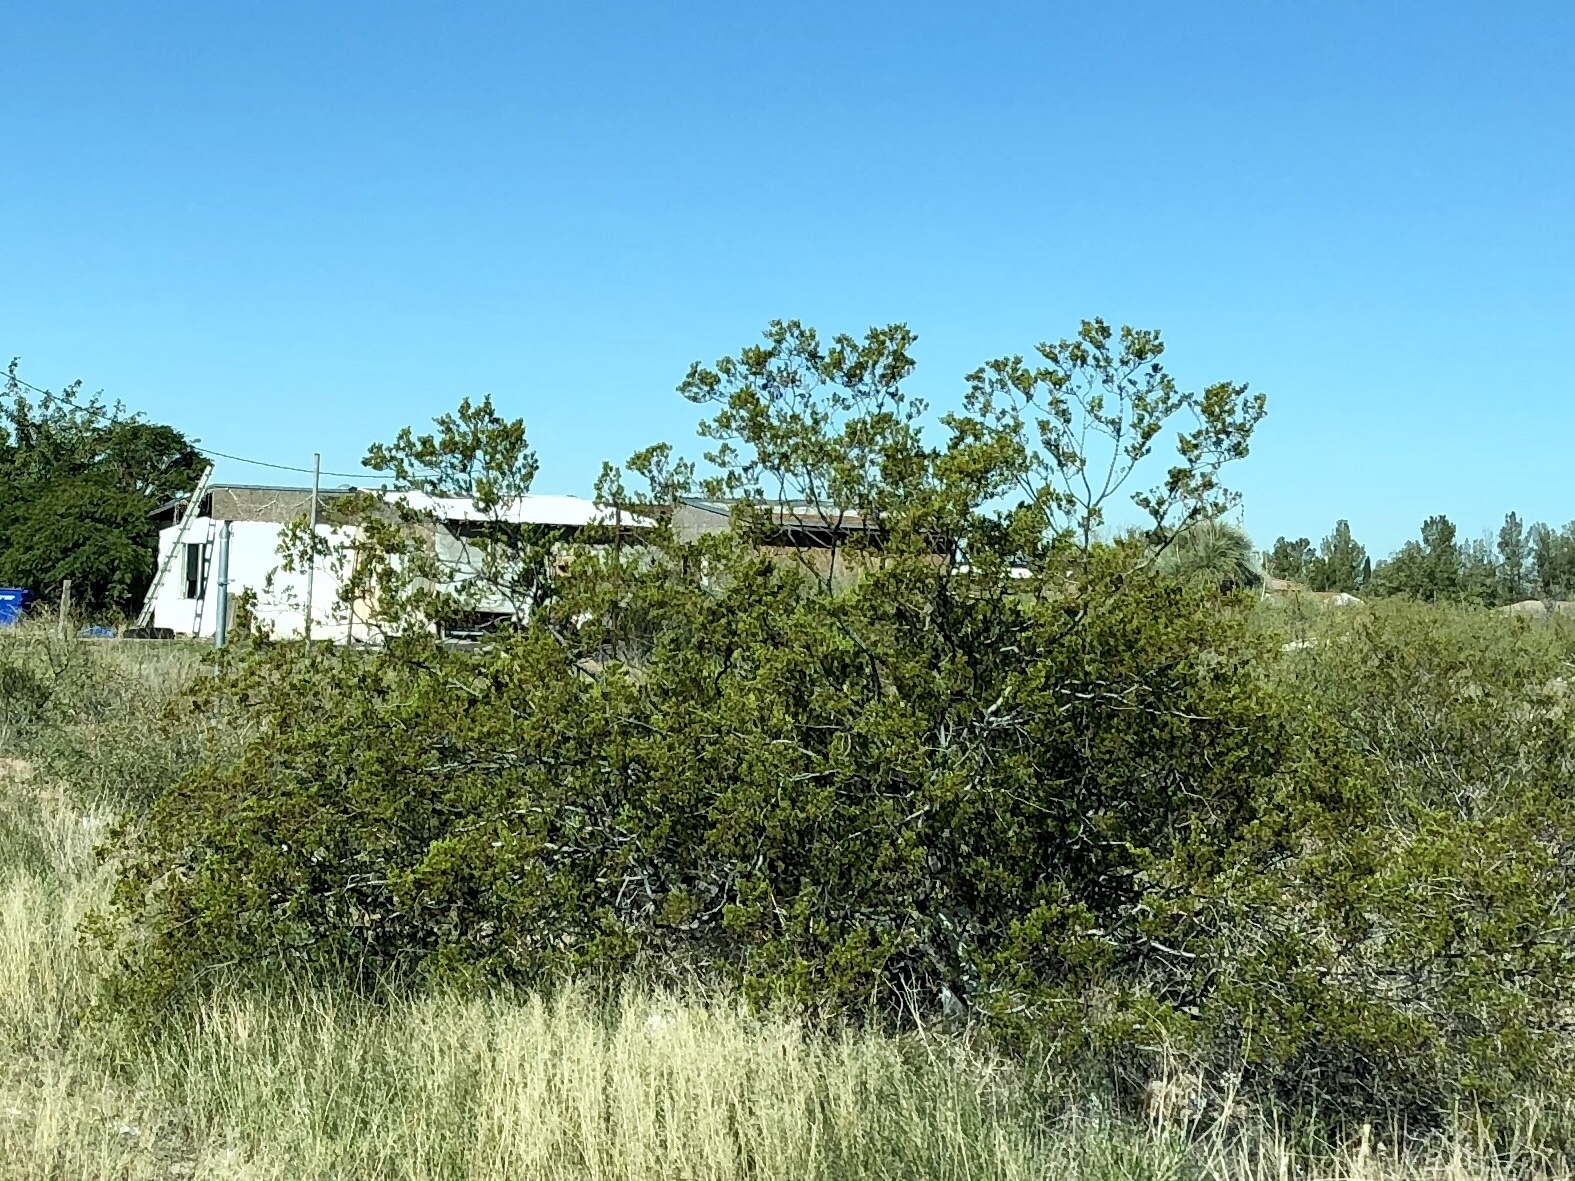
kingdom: Plantae
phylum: Tracheophyta
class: Magnoliopsida
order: Zygophyllales
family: Zygophyllaceae
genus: Larrea
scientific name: Larrea tridentata
